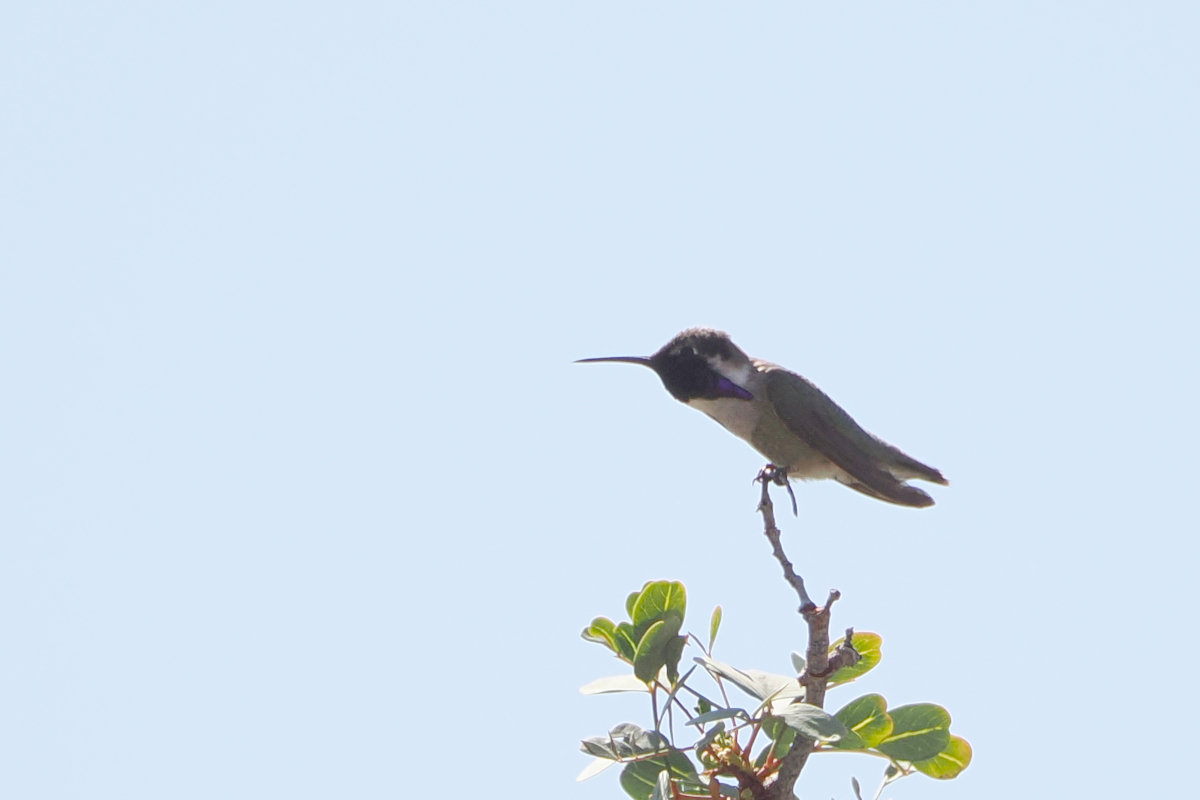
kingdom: Animalia
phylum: Chordata
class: Aves
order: Apodiformes
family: Trochilidae
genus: Calypte
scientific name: Calypte costae
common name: Costa's hummingbird
